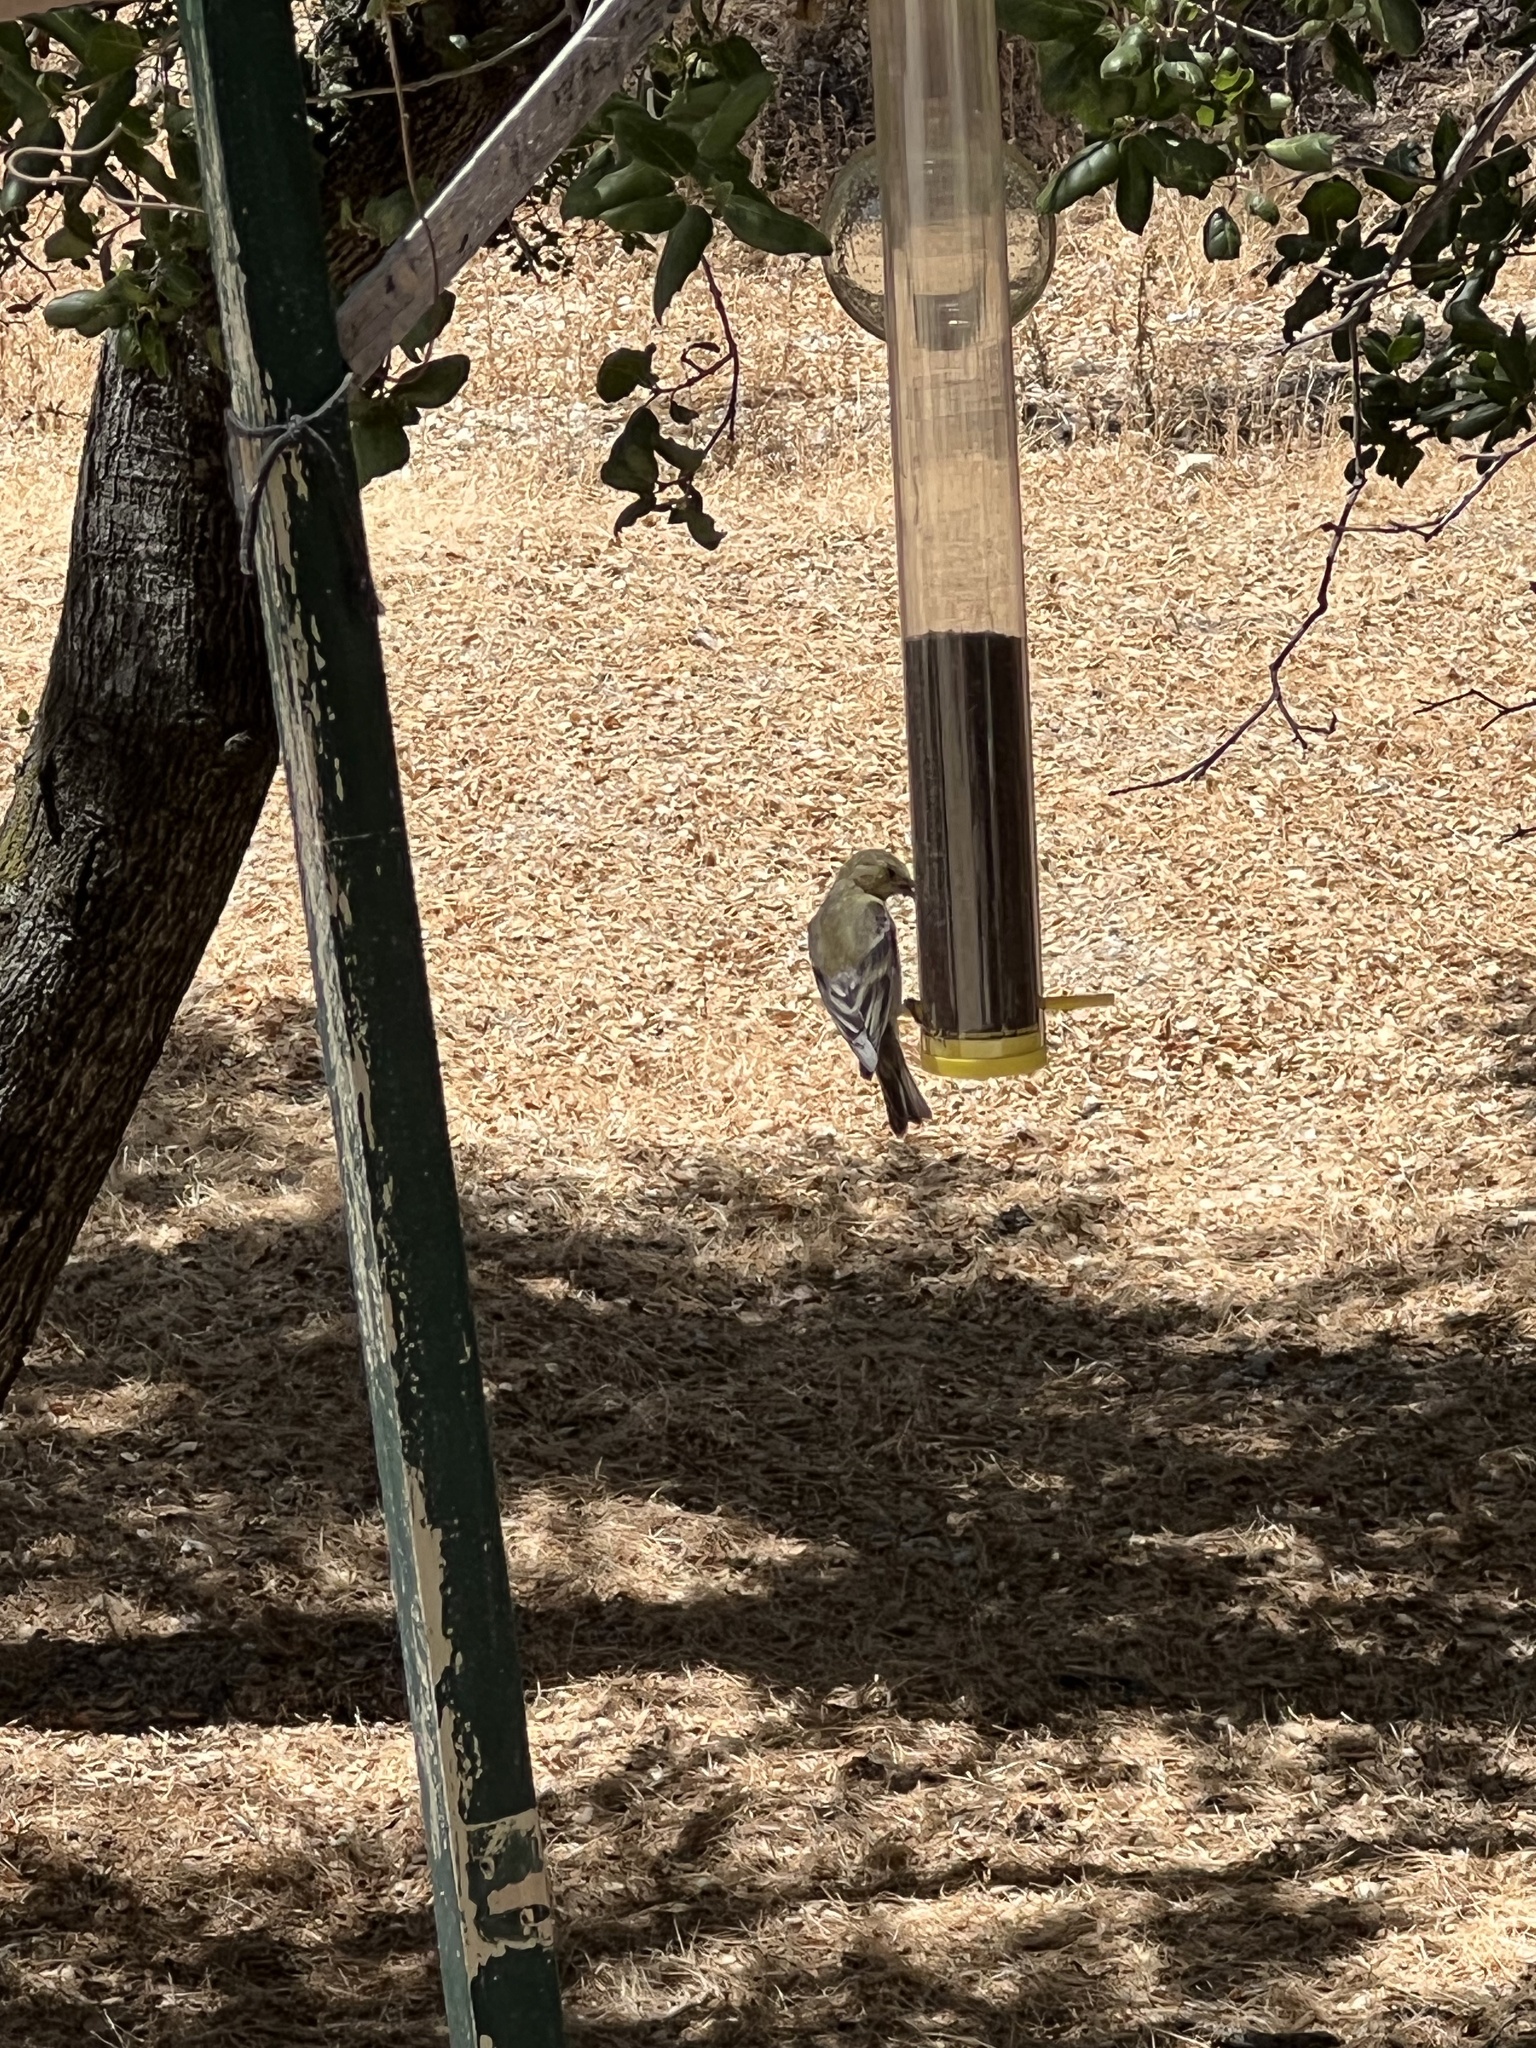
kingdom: Animalia
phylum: Chordata
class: Aves
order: Passeriformes
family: Fringillidae
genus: Spinus
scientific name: Spinus psaltria
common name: Lesser goldfinch
